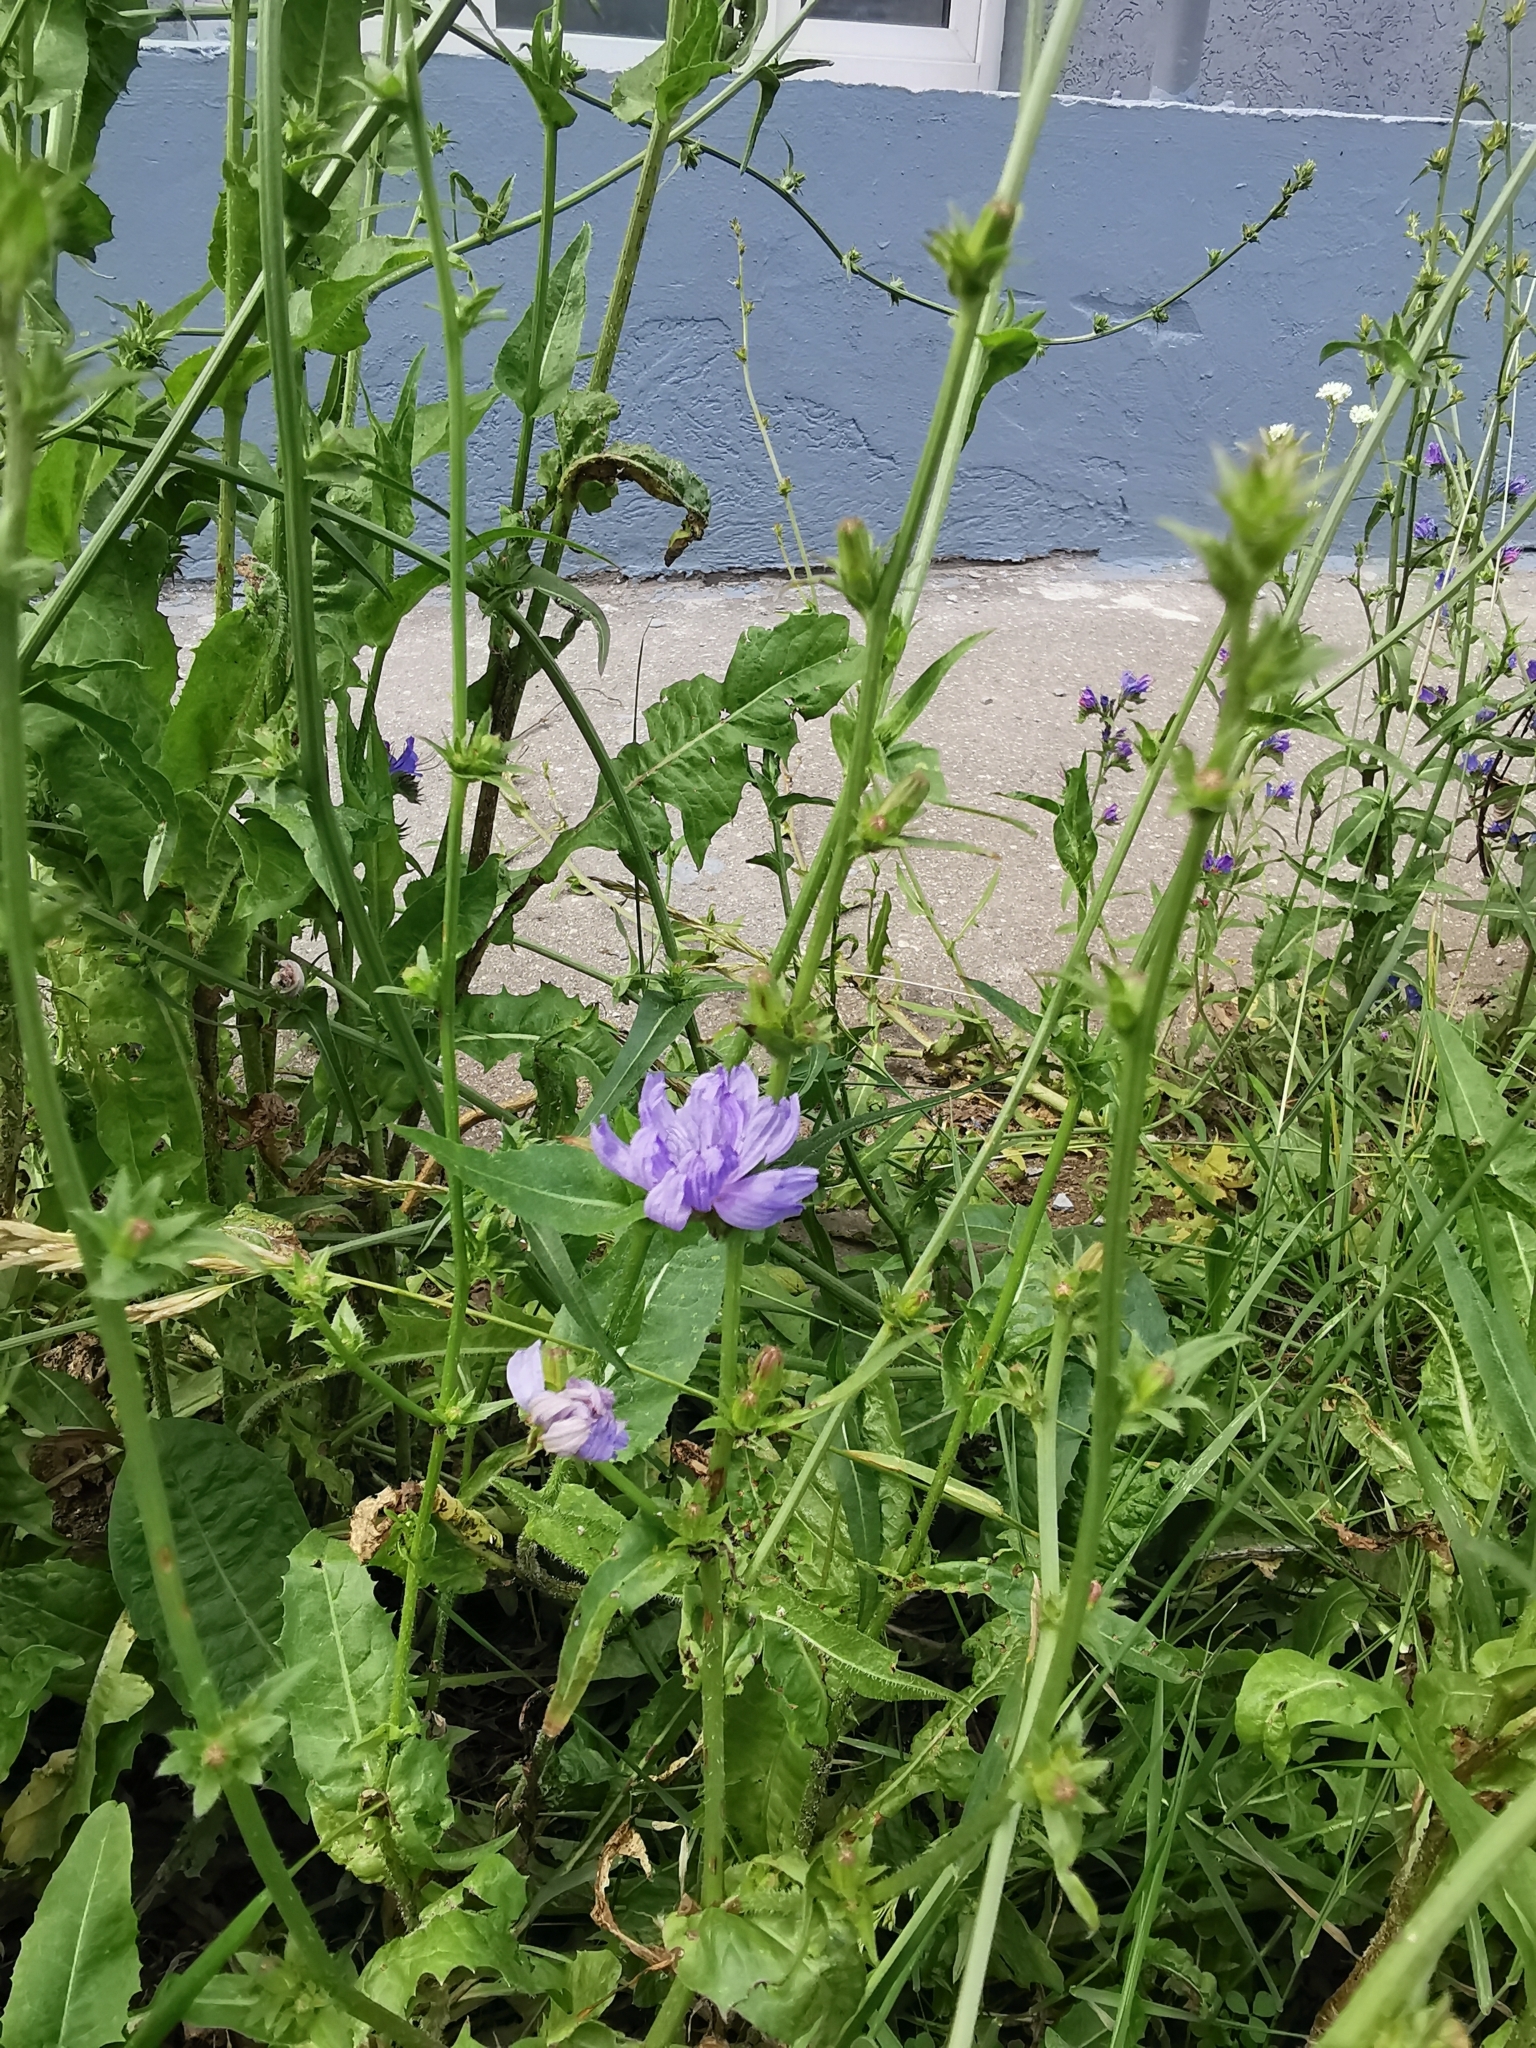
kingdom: Plantae
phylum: Tracheophyta
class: Magnoliopsida
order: Asterales
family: Asteraceae
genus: Cichorium
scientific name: Cichorium intybus
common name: Chicory
